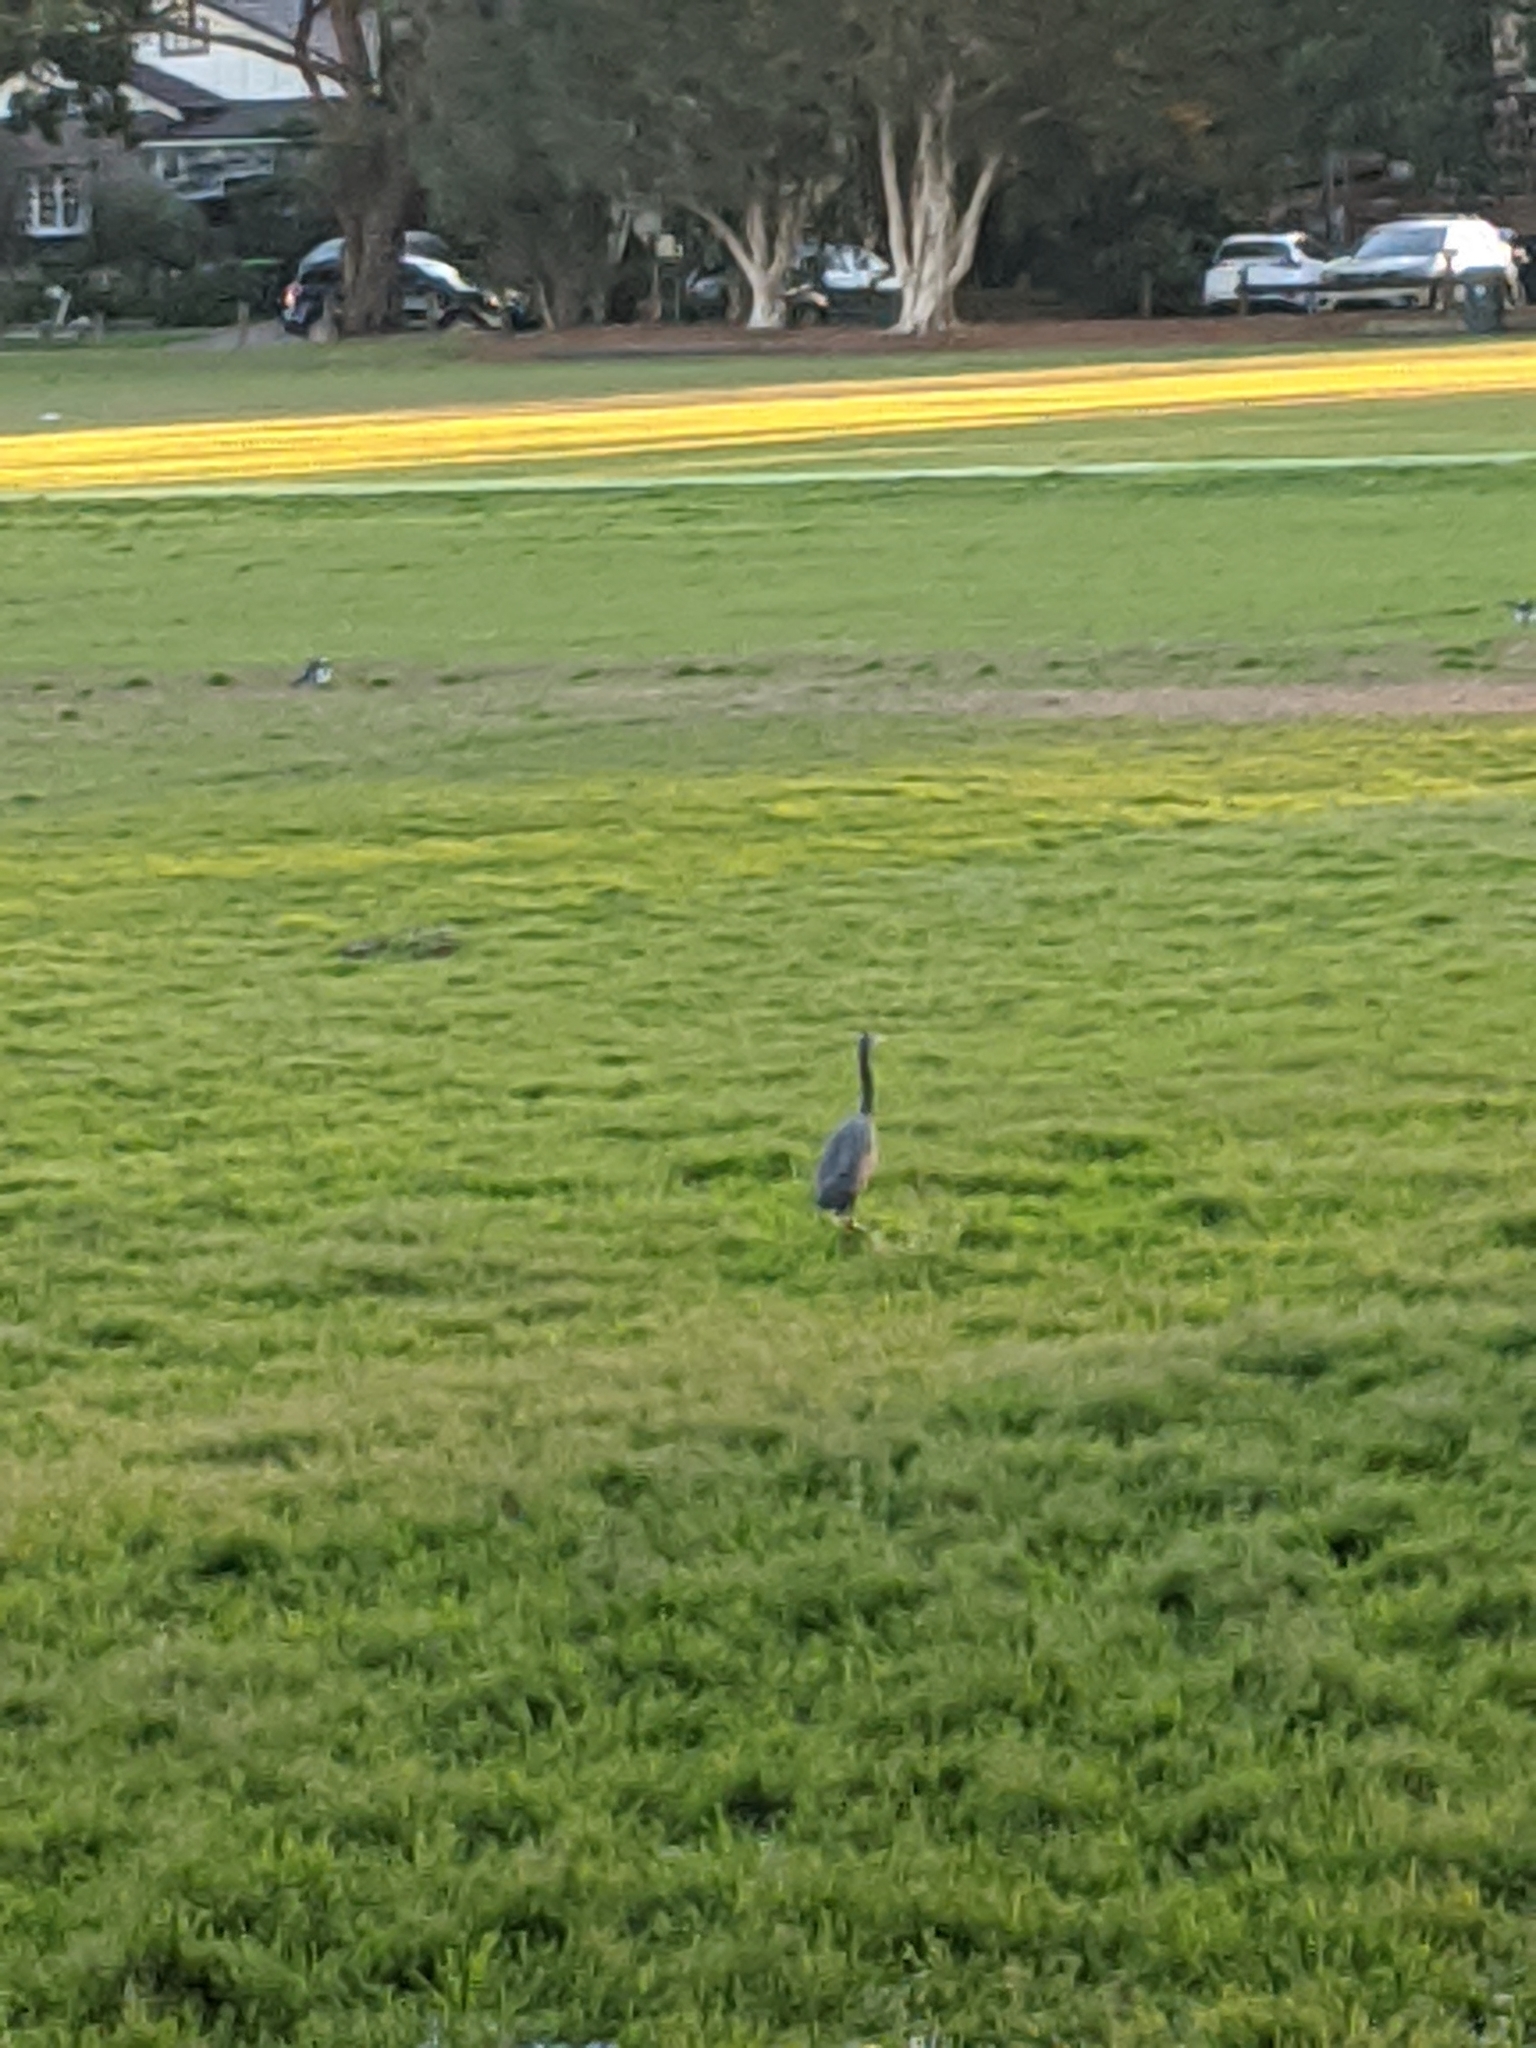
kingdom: Animalia
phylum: Chordata
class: Aves
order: Pelecaniformes
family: Ardeidae
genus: Egretta
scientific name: Egretta sacra
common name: Pacific reef heron
